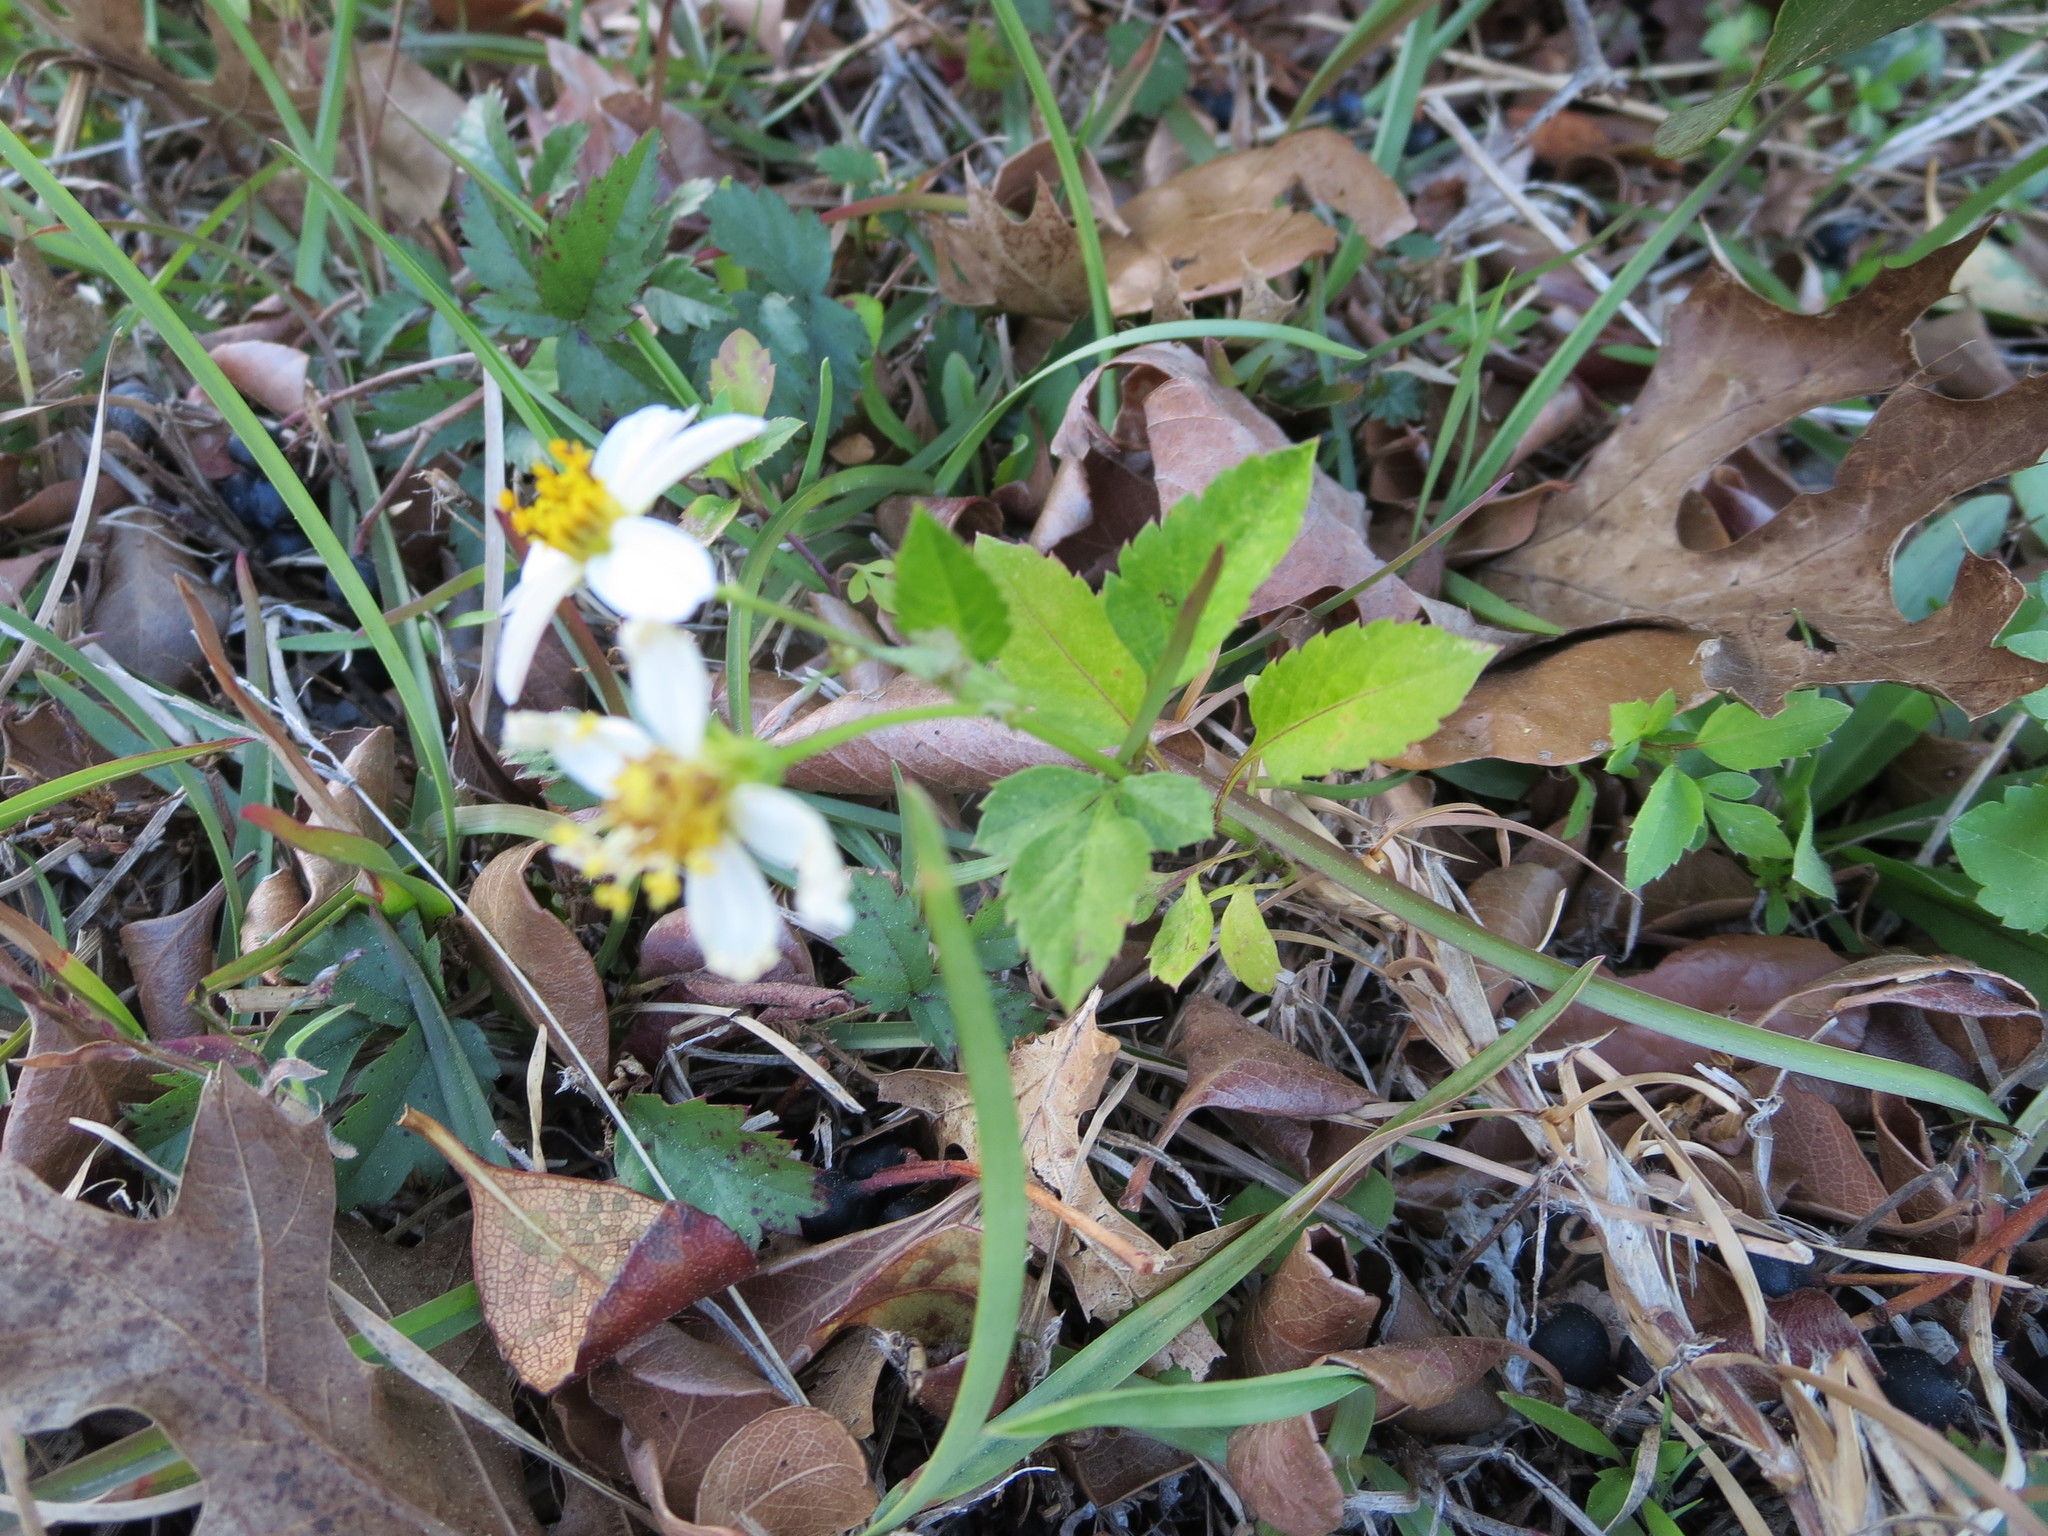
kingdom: Plantae
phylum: Tracheophyta
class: Magnoliopsida
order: Asterales
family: Asteraceae
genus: Bidens
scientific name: Bidens alba
